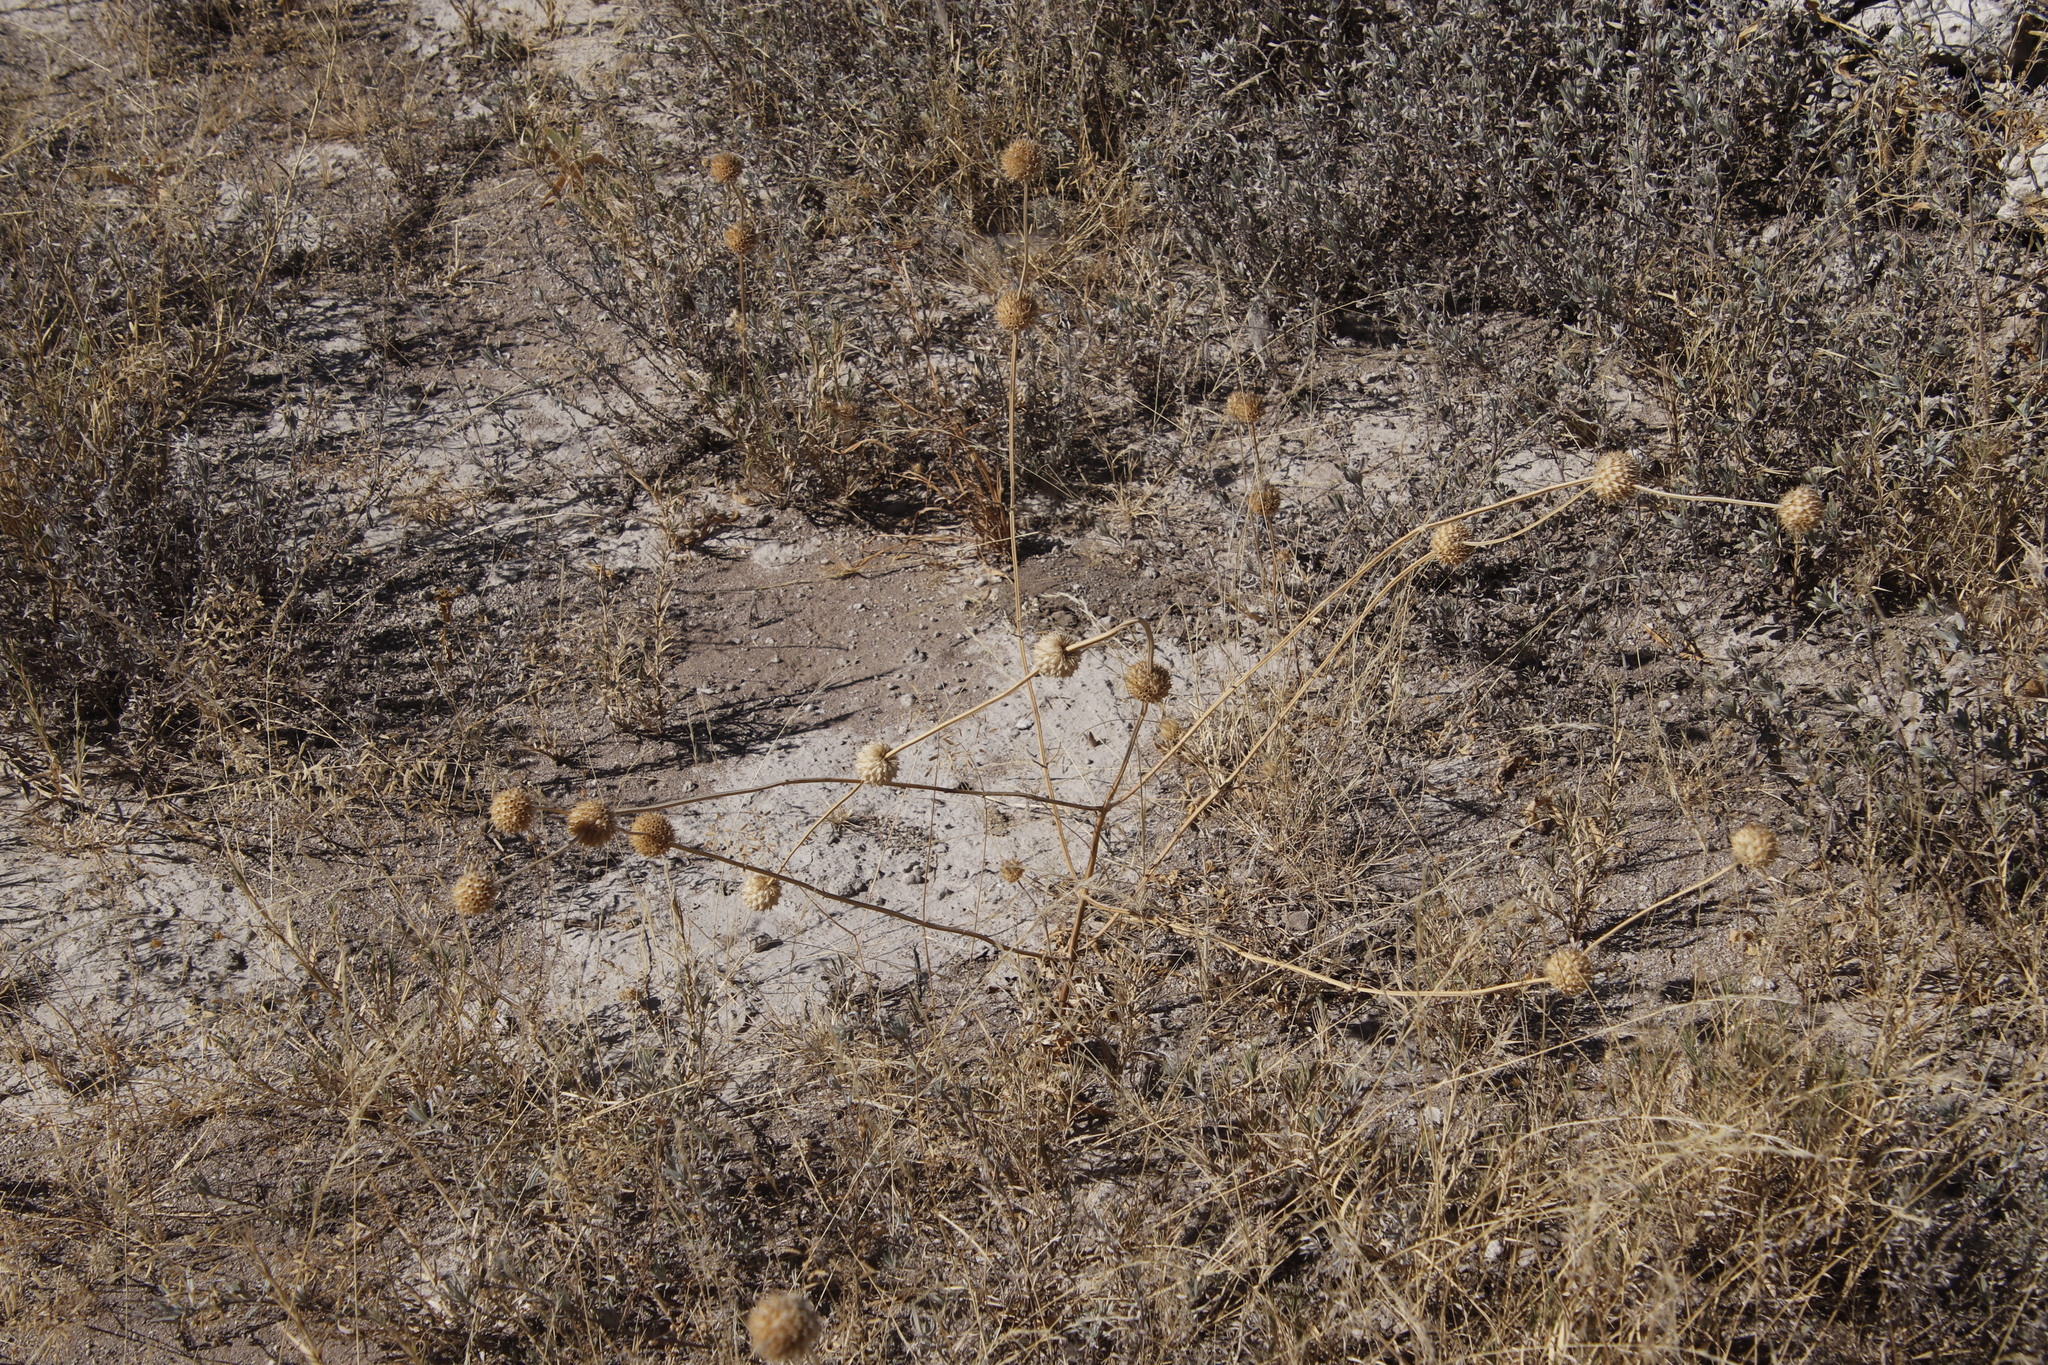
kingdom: Plantae
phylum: Tracheophyta
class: Magnoliopsida
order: Lamiales
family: Lamiaceae
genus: Acrotome
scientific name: Acrotome inflata
